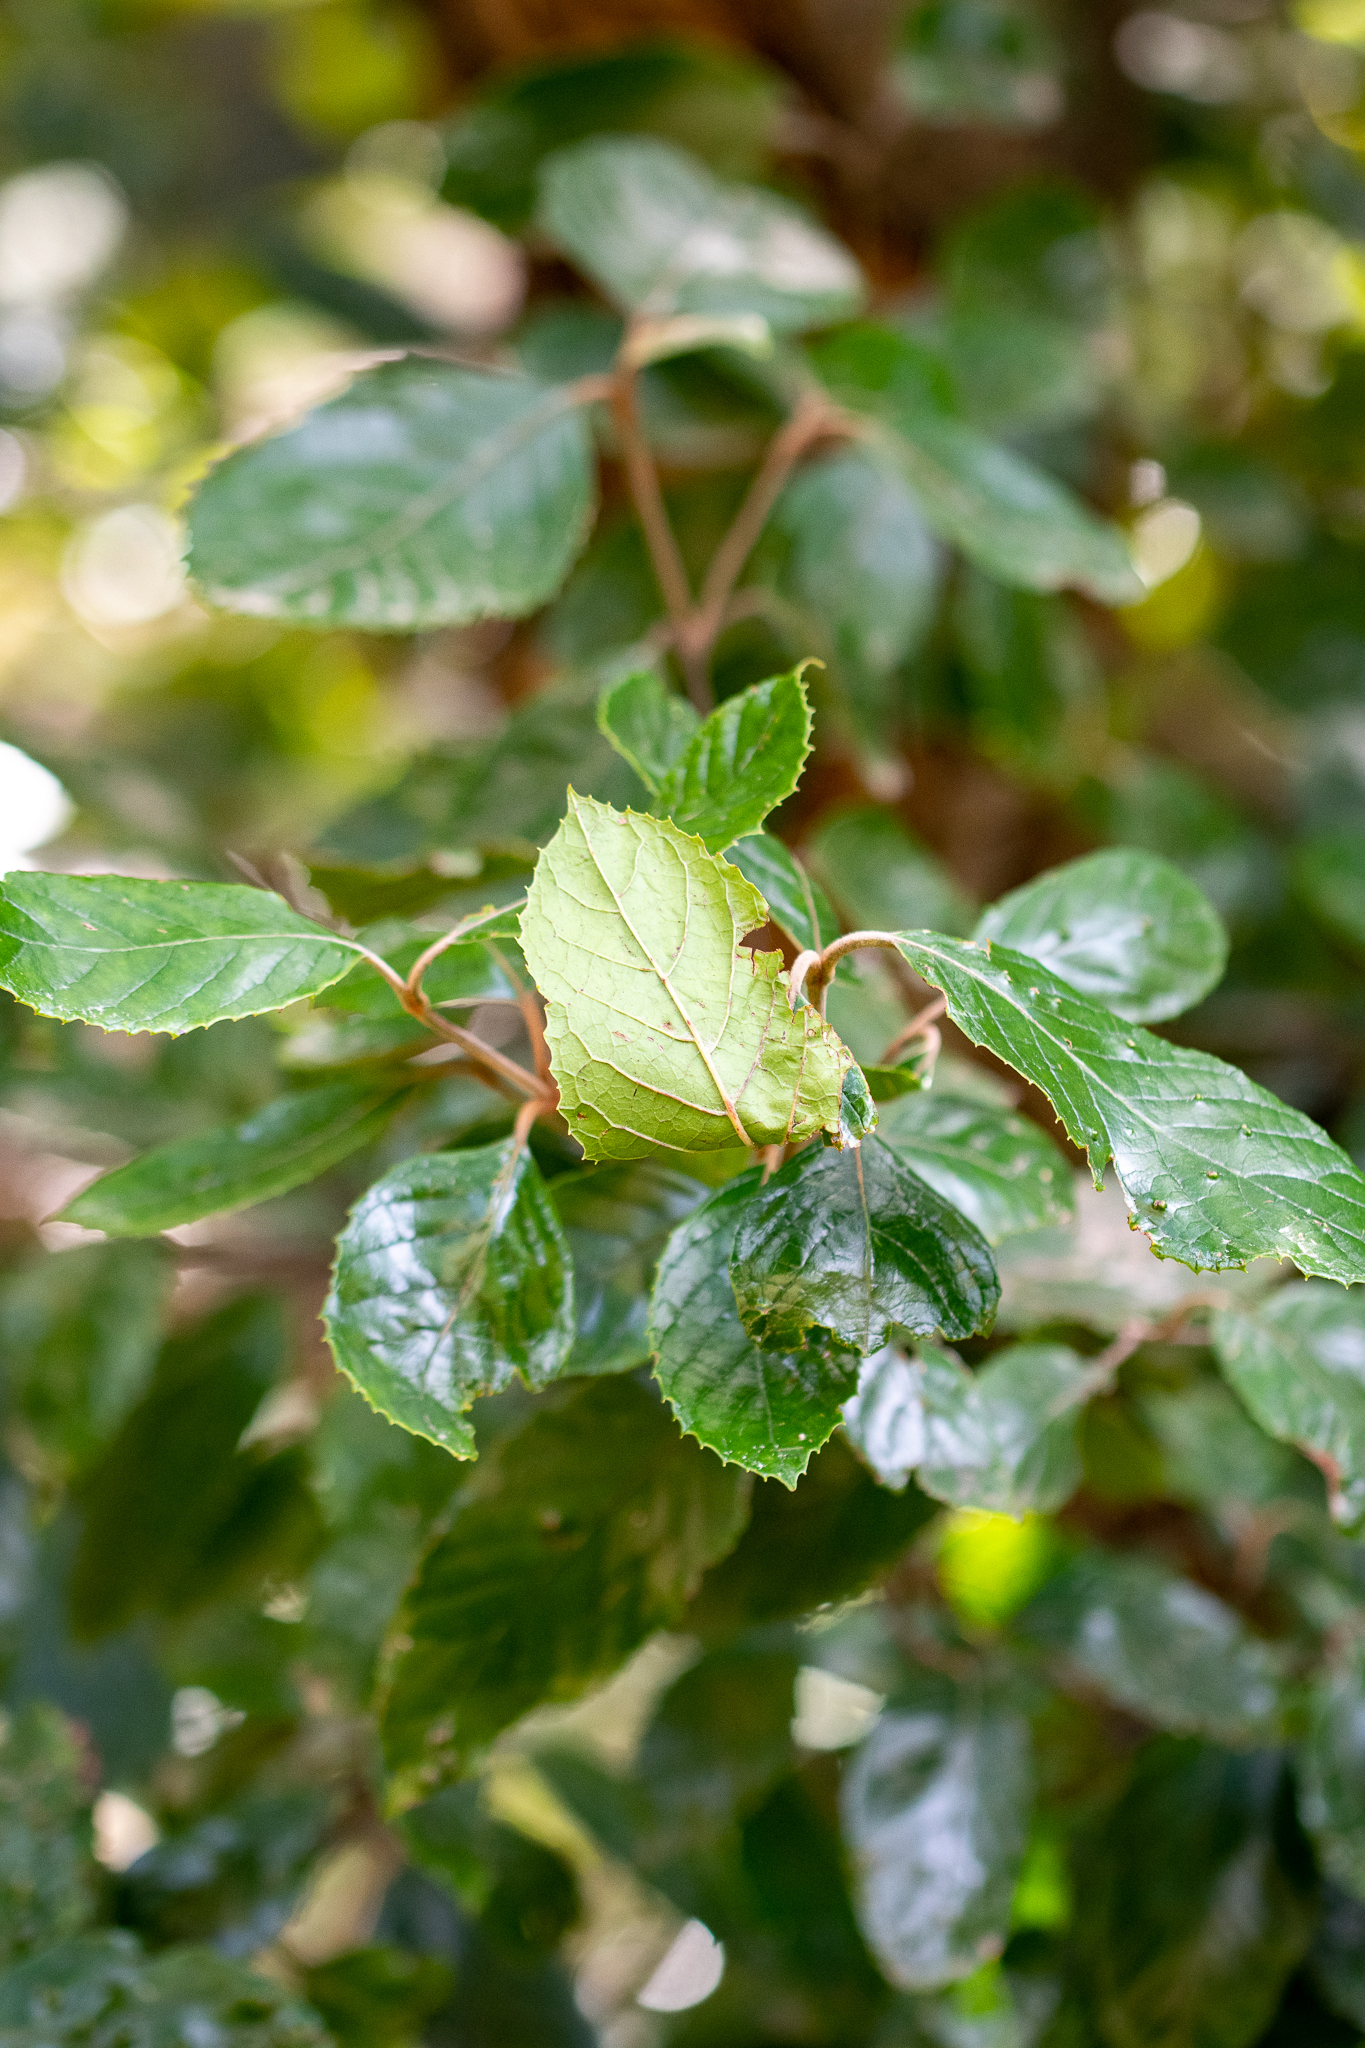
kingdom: Plantae
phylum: Tracheophyta
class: Magnoliopsida
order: Cornales
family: Curtisiaceae
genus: Curtisia
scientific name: Curtisia dentata
